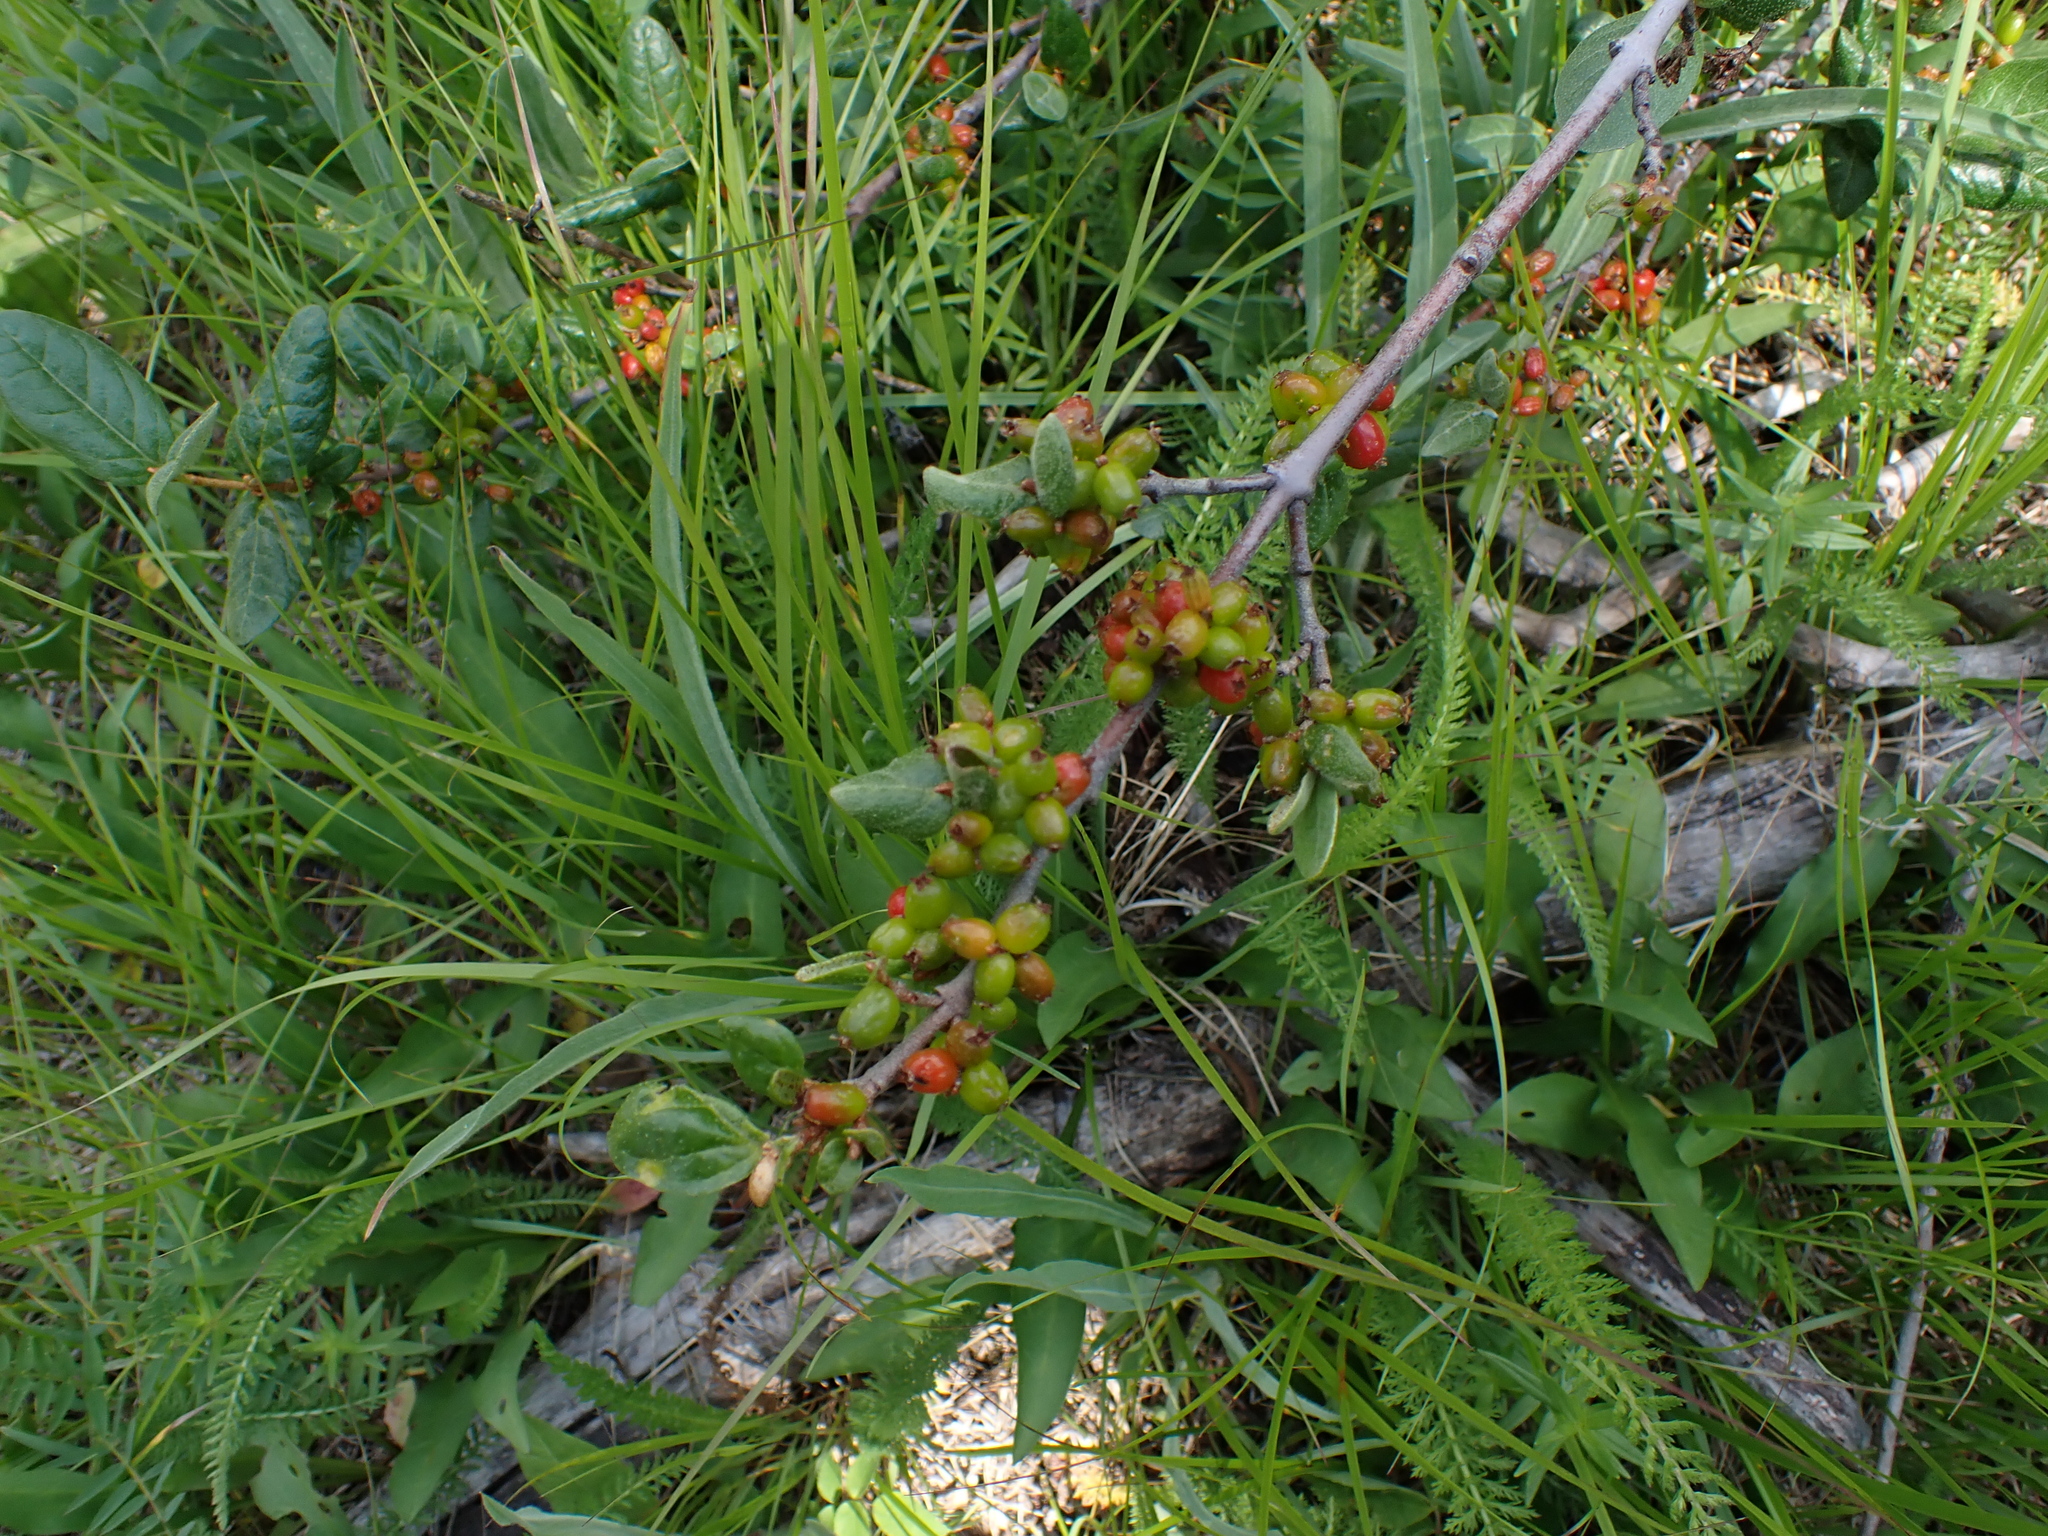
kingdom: Plantae
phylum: Tracheophyta
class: Magnoliopsida
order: Rosales
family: Elaeagnaceae
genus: Shepherdia
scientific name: Shepherdia canadensis
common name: Soapberry
